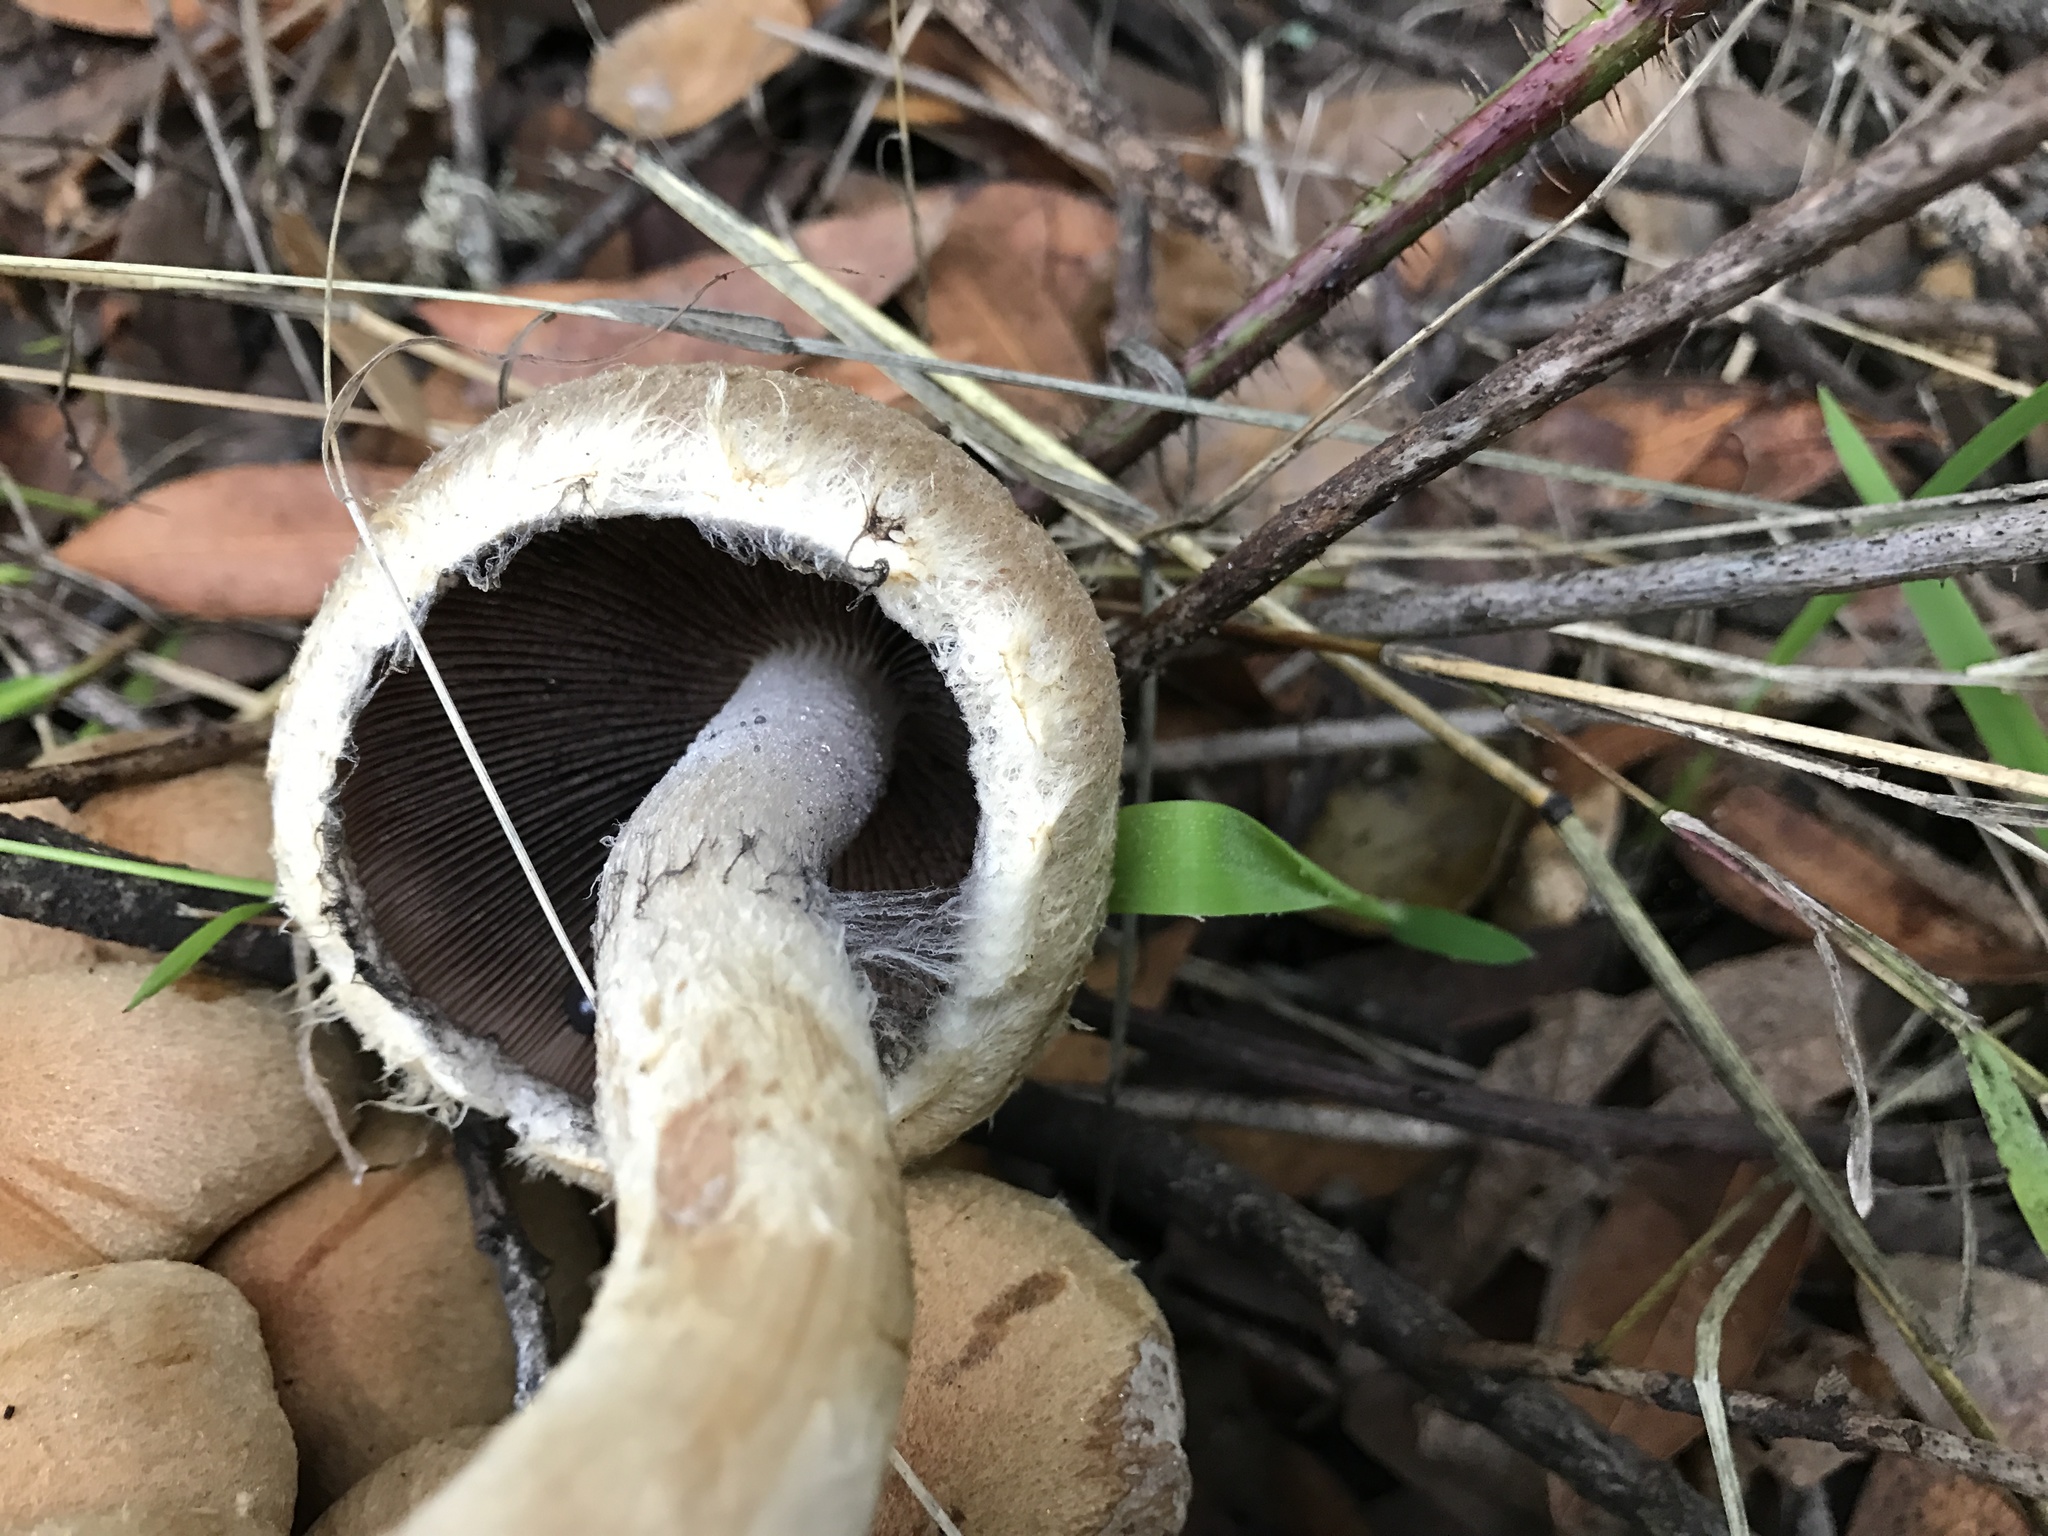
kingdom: Fungi
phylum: Basidiomycota
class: Agaricomycetes
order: Agaricales
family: Psathyrellaceae
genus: Lacrymaria
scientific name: Lacrymaria lacrymabunda
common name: Weeping widow
